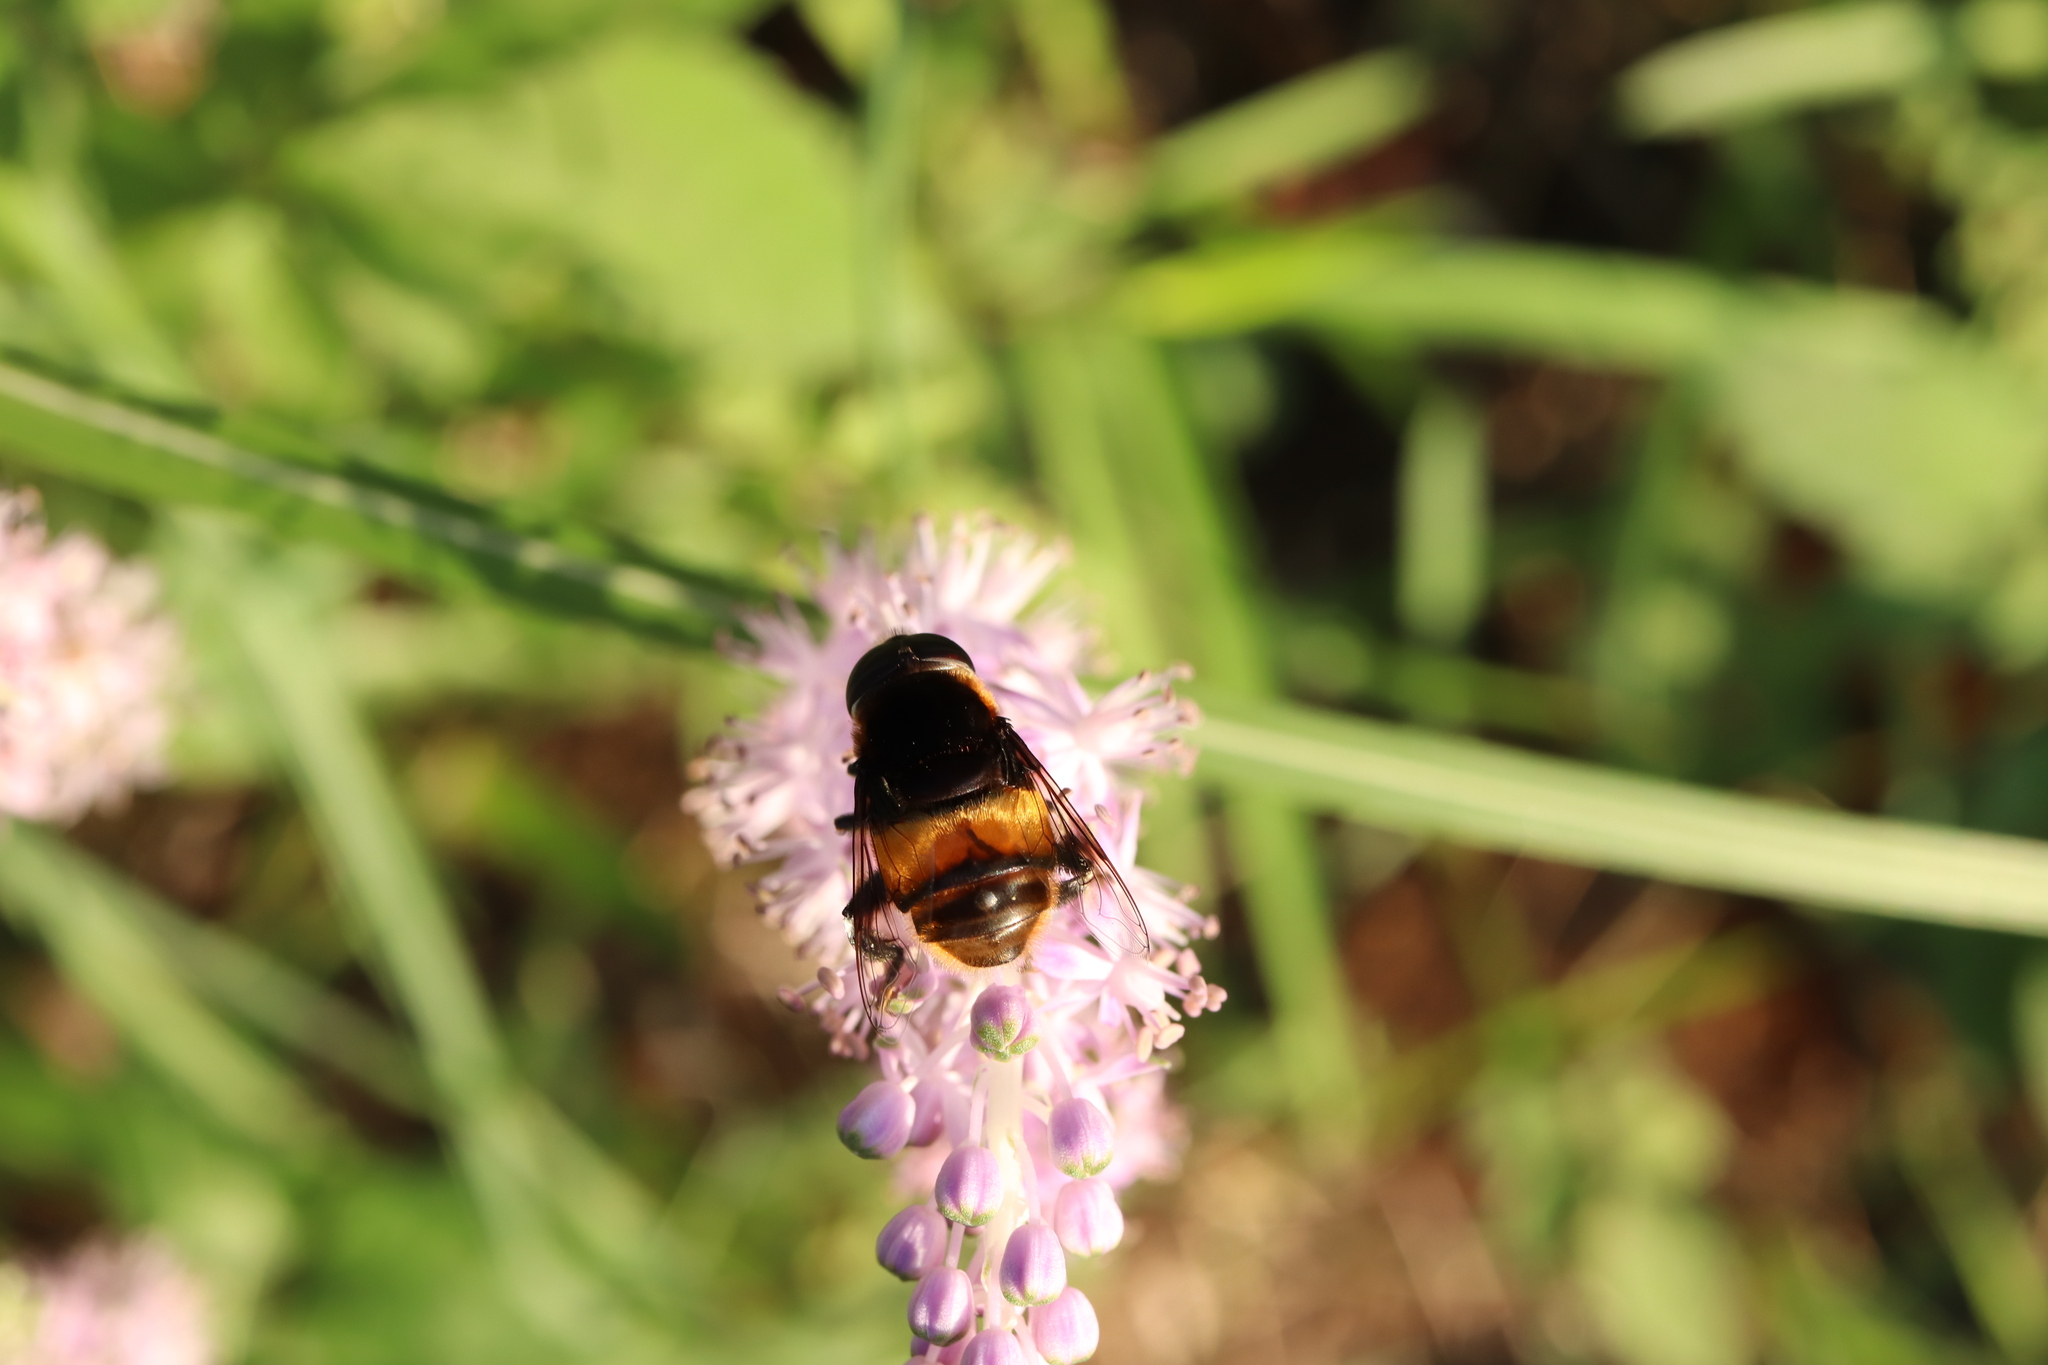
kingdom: Animalia
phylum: Arthropoda
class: Insecta
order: Diptera
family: Syrphidae
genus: Phytomia
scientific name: Phytomia zonata
